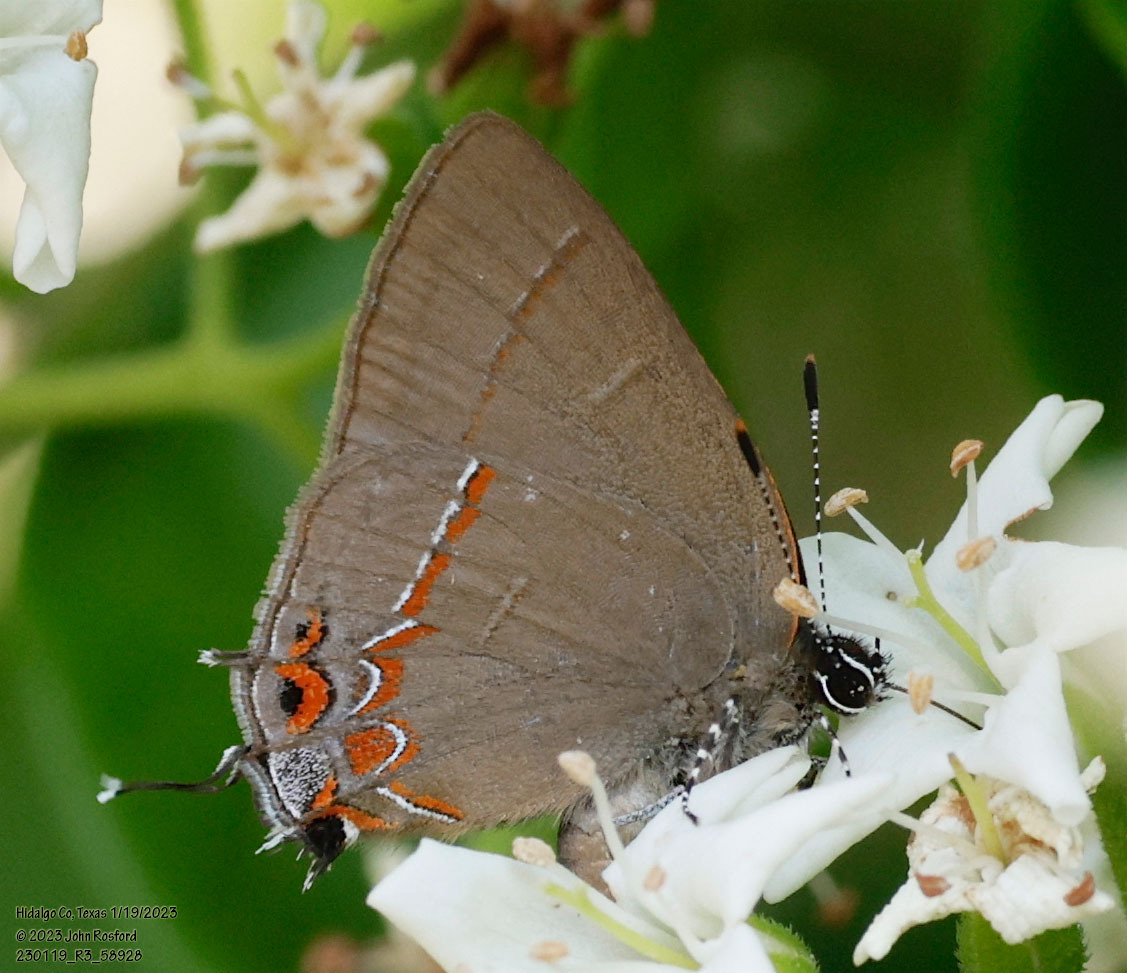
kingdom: Animalia
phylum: Arthropoda
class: Insecta
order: Lepidoptera
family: Lycaenidae
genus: Calycopis
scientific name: Calycopis isobeon
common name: Dusky-blue groundstreak
